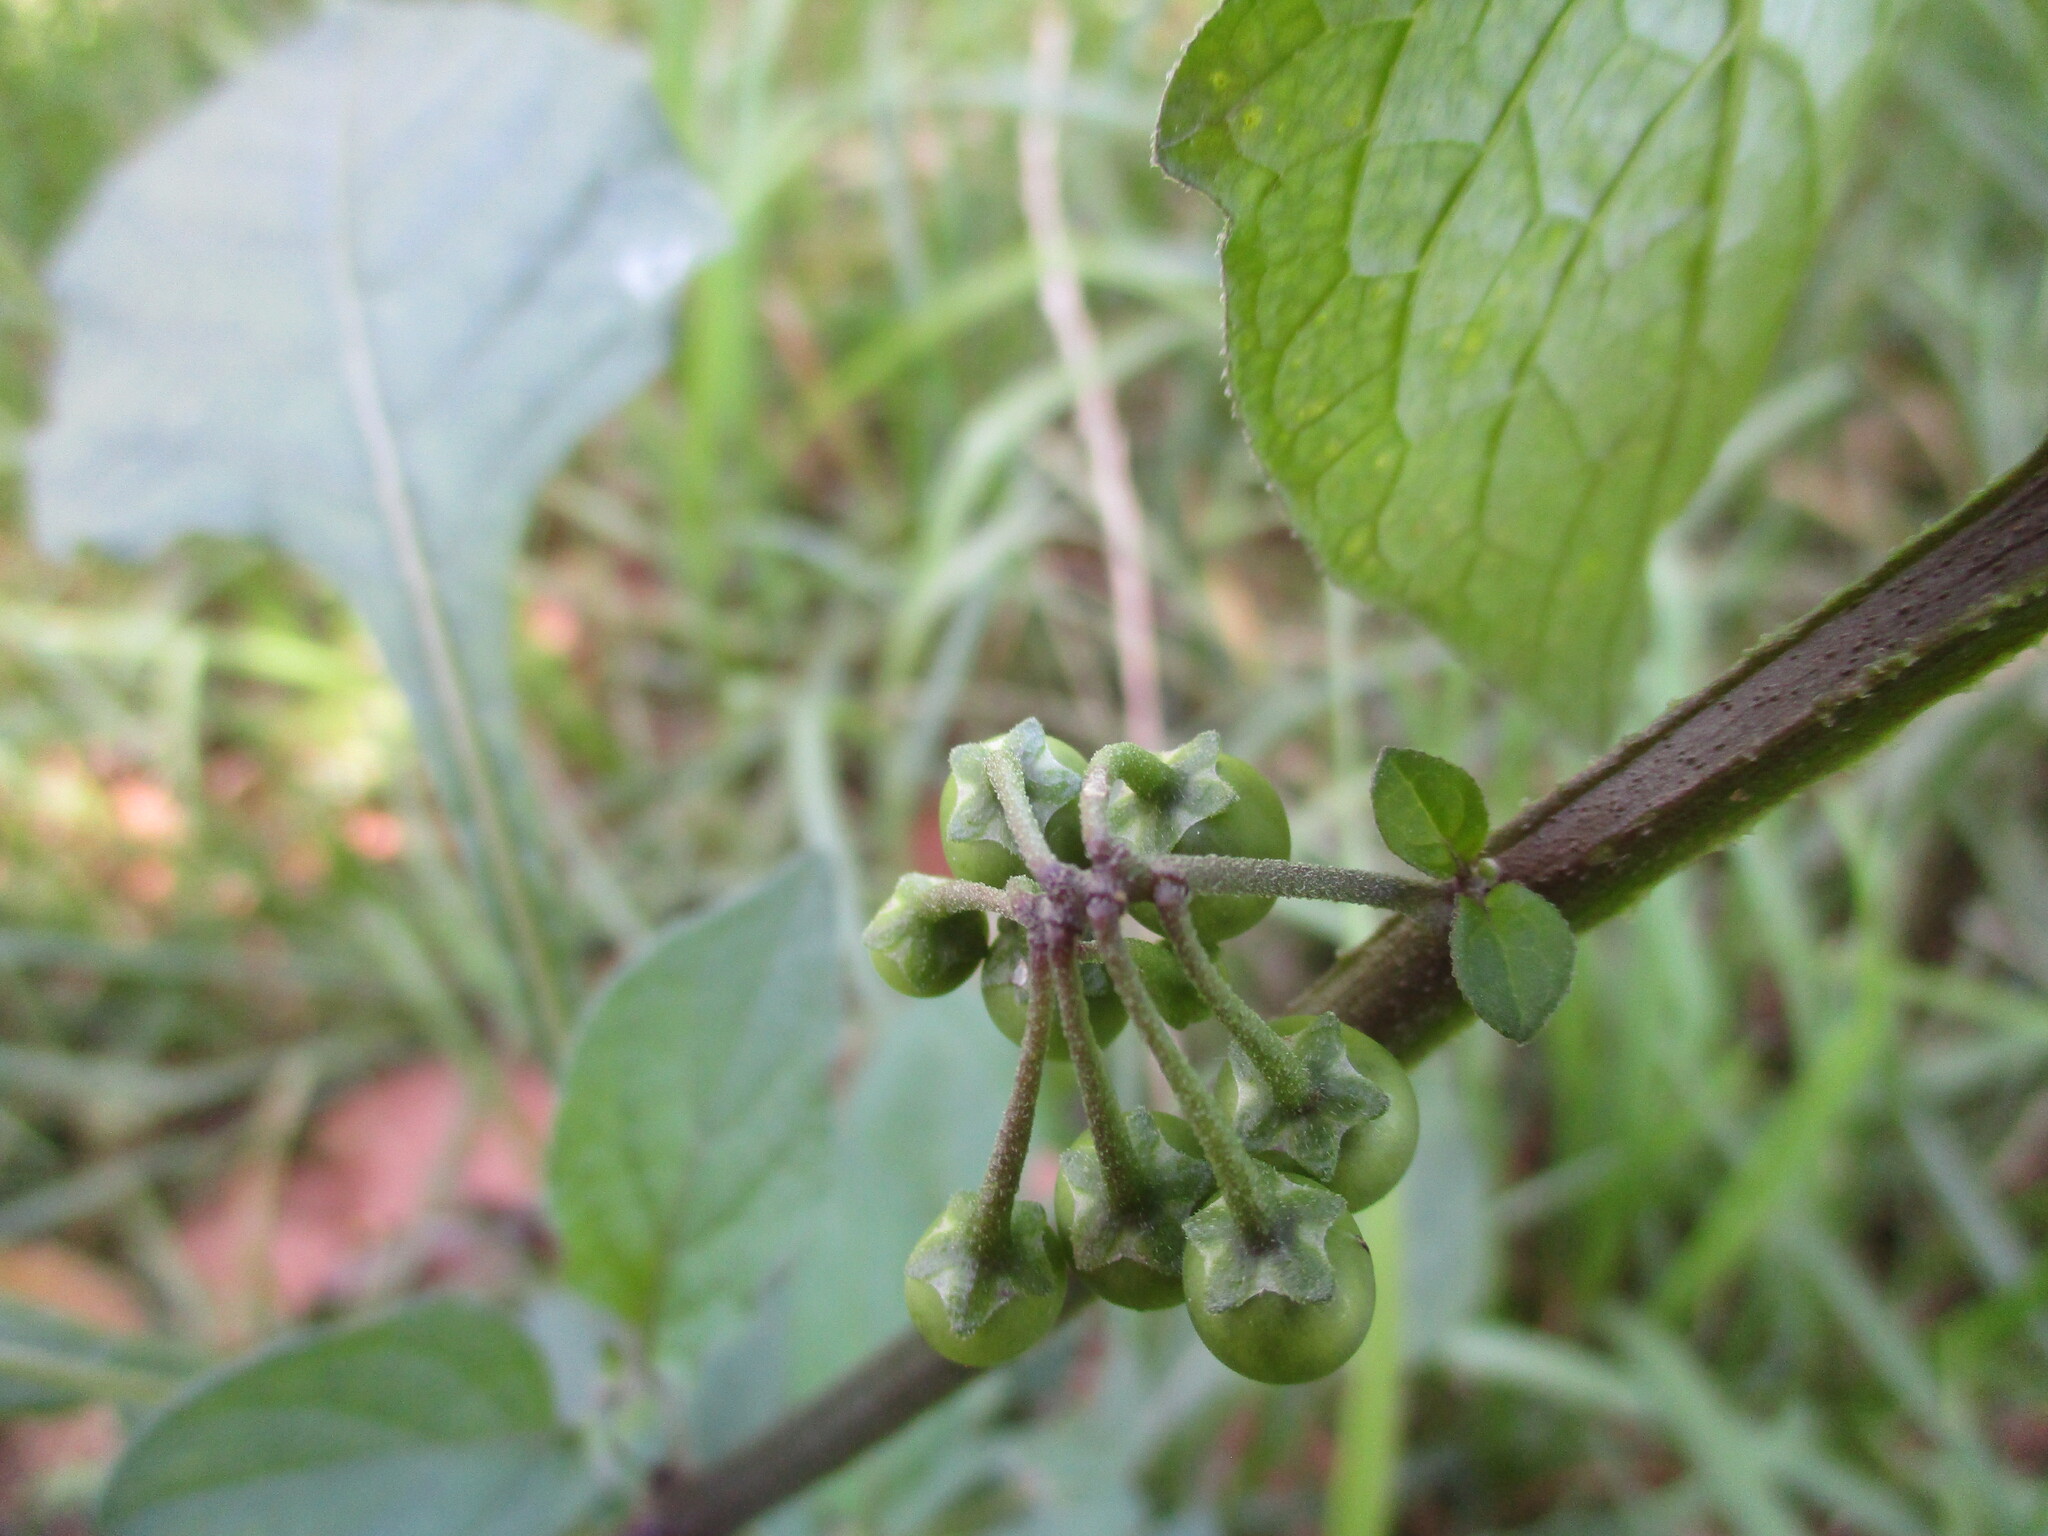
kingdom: Plantae
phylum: Tracheophyta
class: Magnoliopsida
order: Solanales
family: Solanaceae
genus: Solanum
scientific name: Solanum nigrum
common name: Black nightshade
